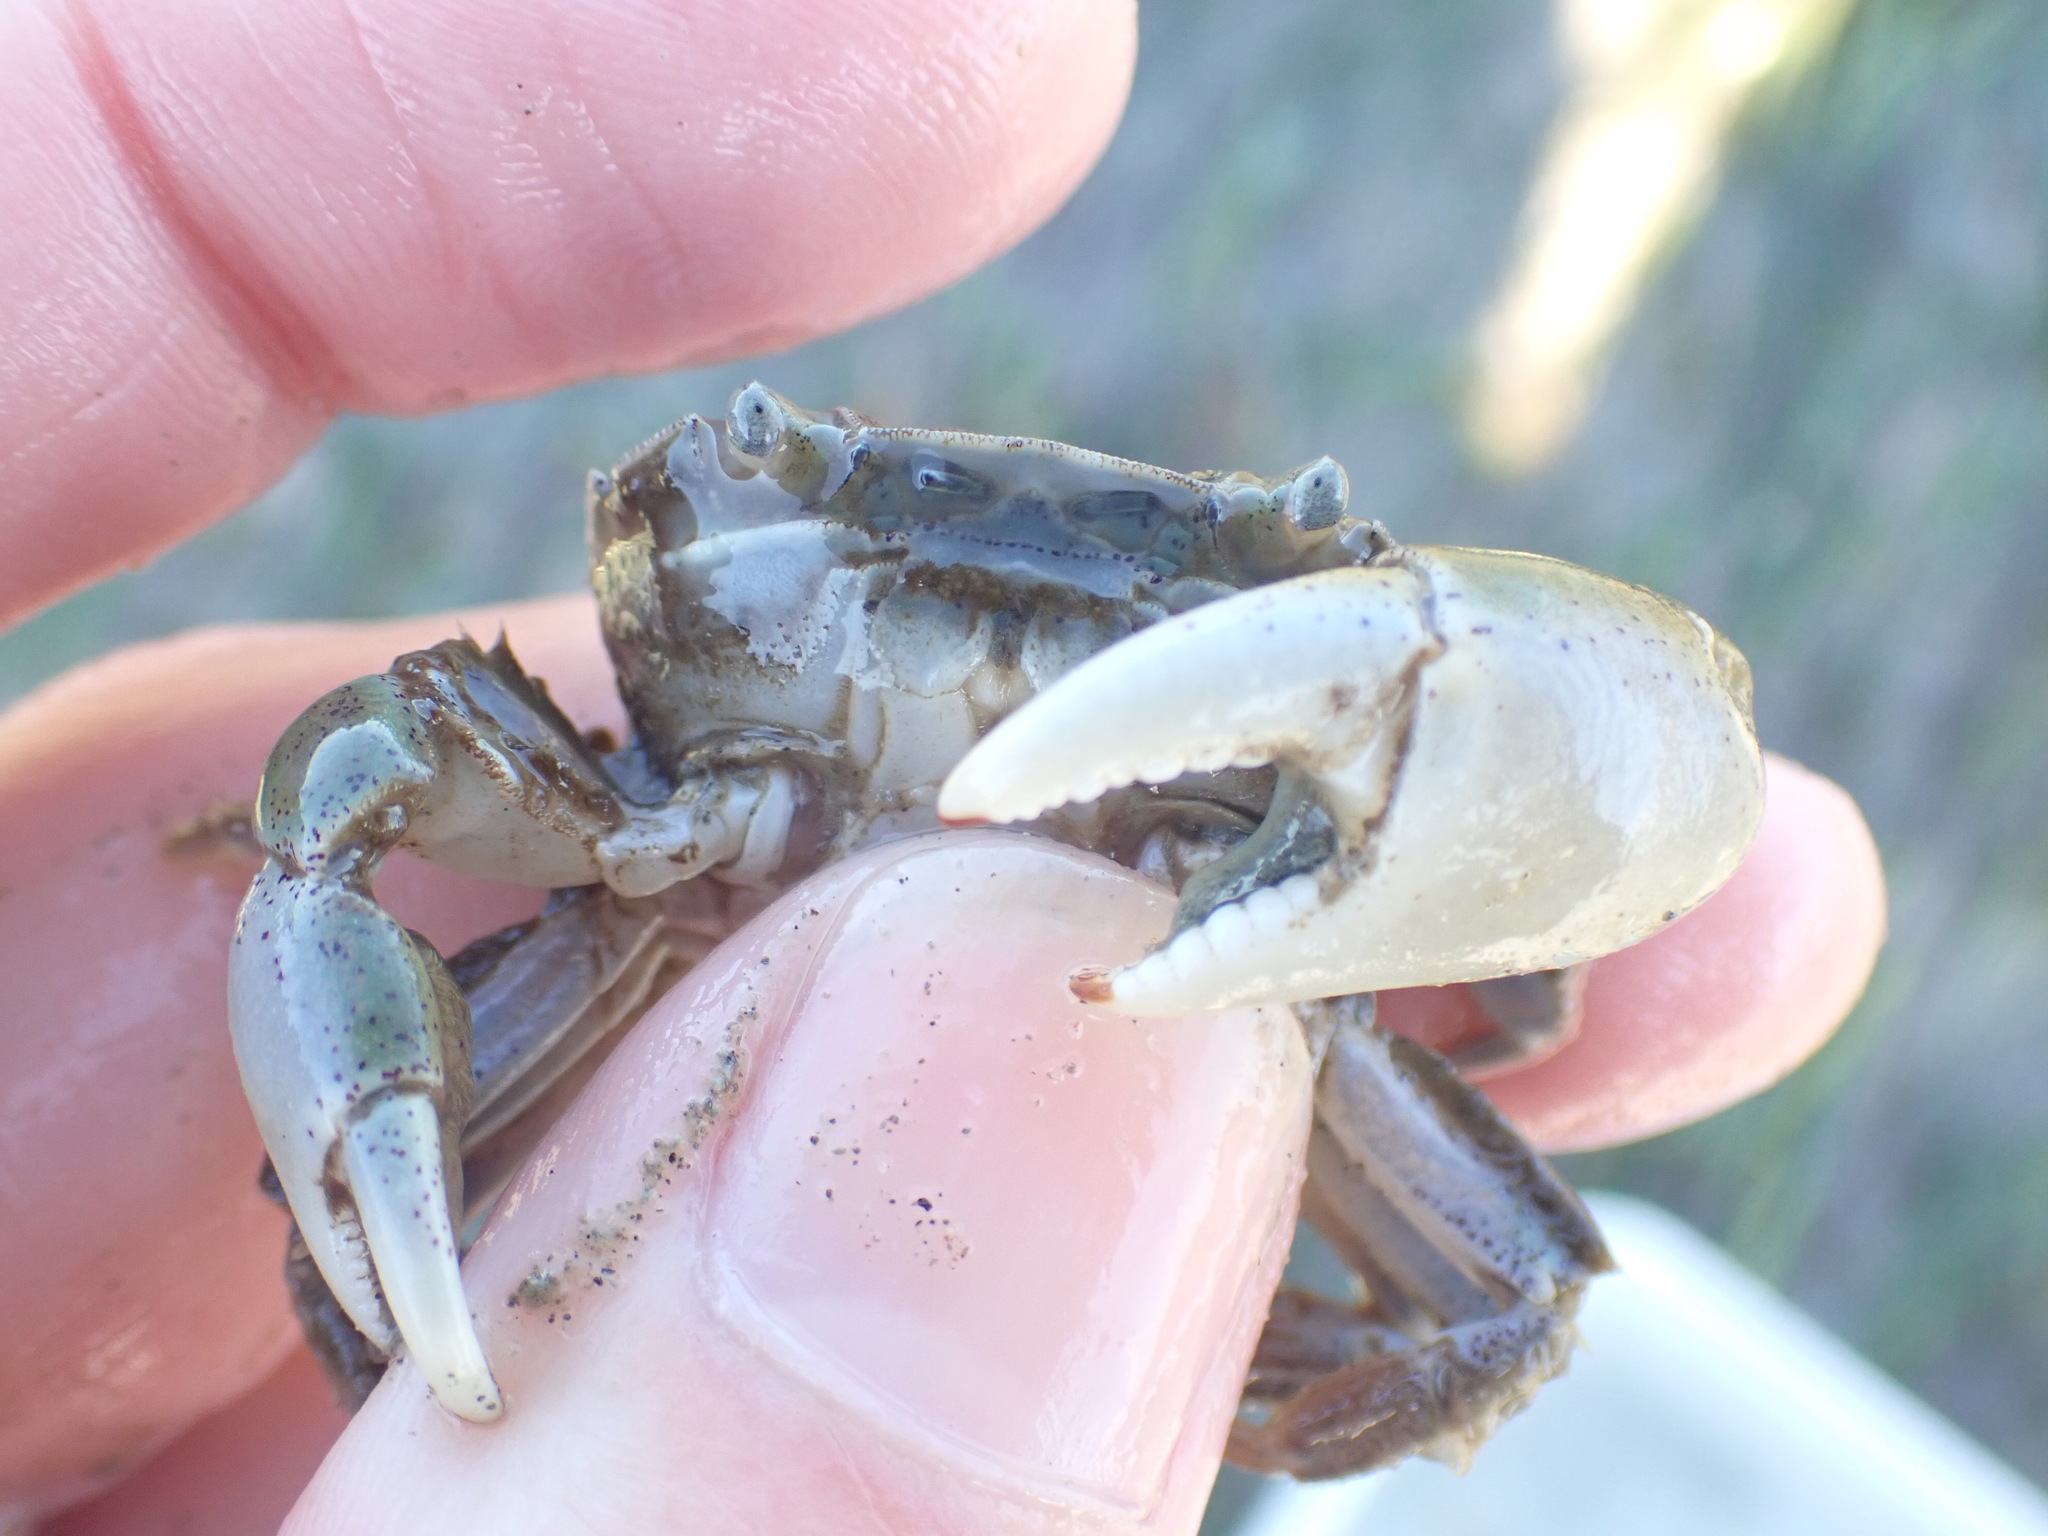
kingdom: Animalia
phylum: Arthropoda
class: Malacostraca
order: Decapoda
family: Varunidae
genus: Hemigrapsus
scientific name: Hemigrapsus crenulatus
